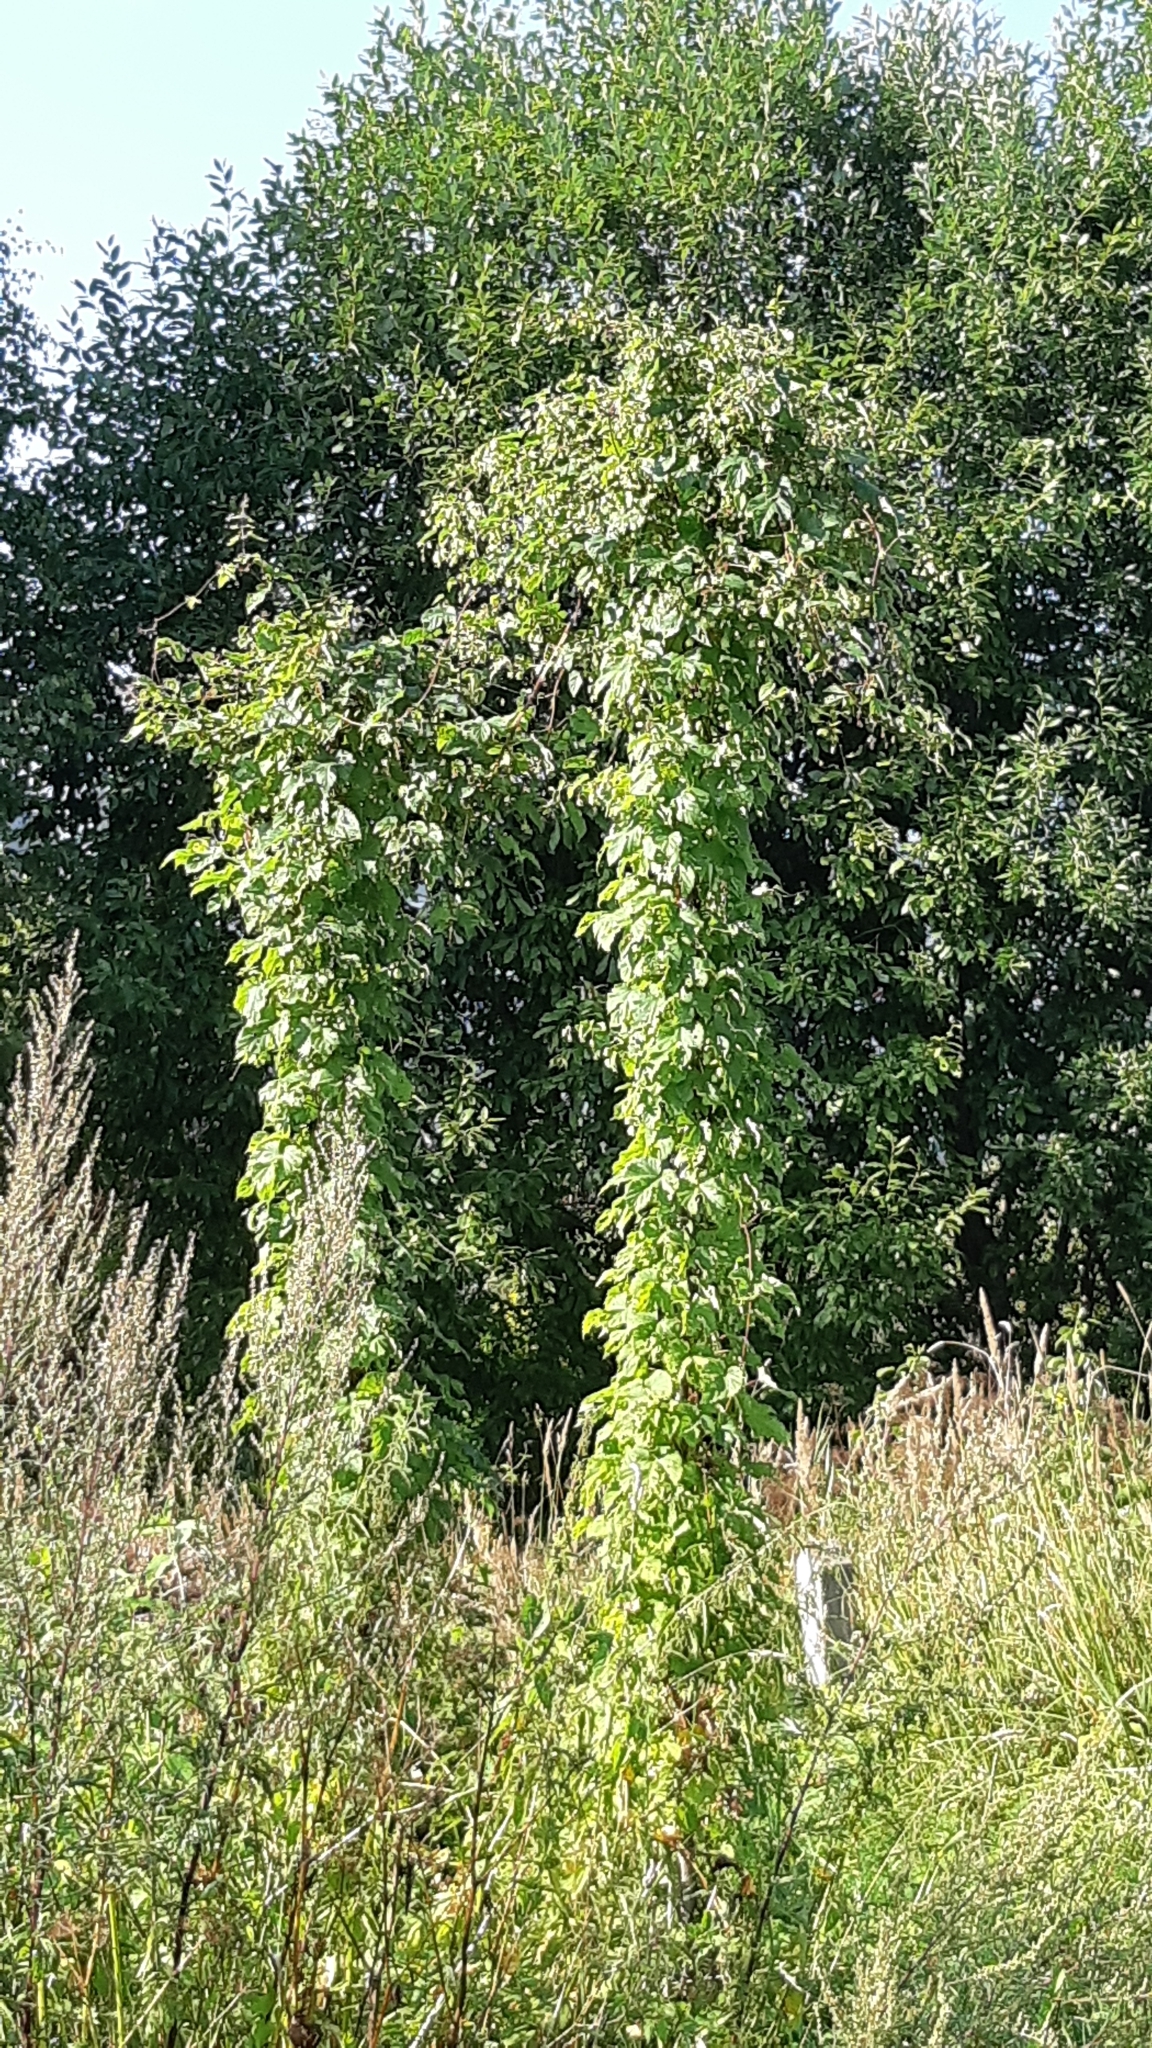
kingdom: Plantae
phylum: Tracheophyta
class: Magnoliopsida
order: Rosales
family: Cannabaceae
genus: Humulus
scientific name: Humulus lupulus
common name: Hop
